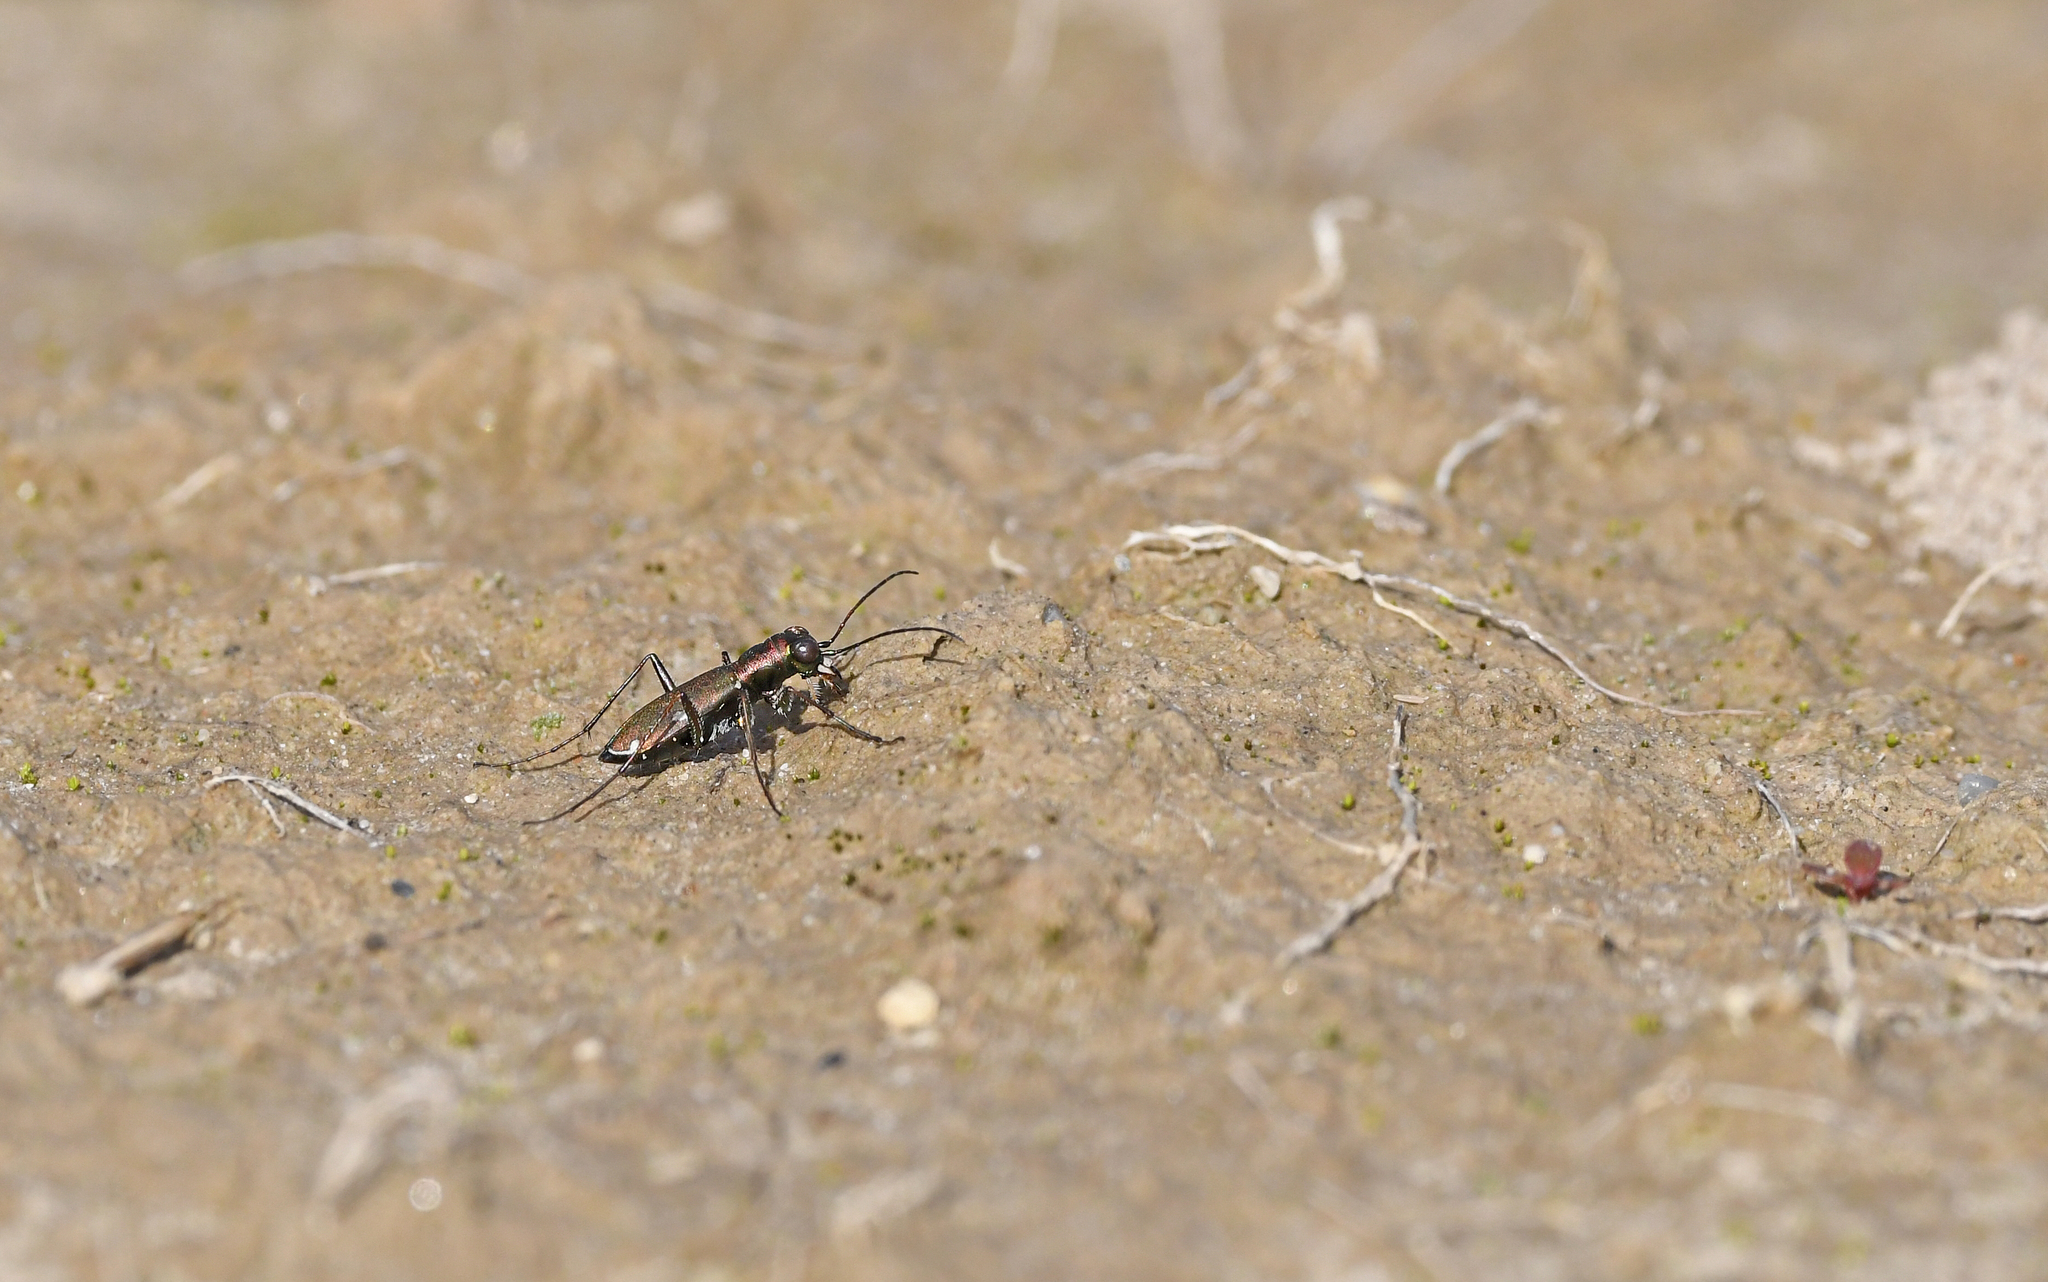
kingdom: Animalia
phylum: Arthropoda
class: Insecta
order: Coleoptera
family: Carabidae
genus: Cylindera
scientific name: Cylindera germanica
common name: Cliff tiger beetle
